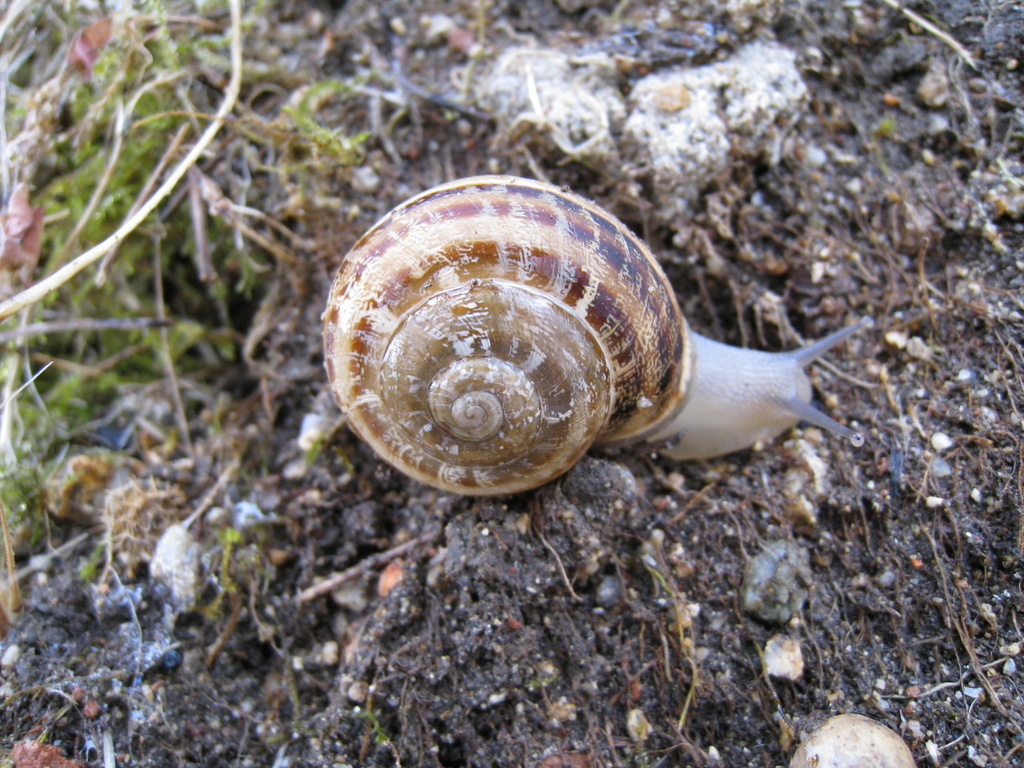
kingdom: Animalia
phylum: Mollusca
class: Gastropoda
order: Stylommatophora
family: Helicidae
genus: Eobania
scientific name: Eobania vermiculata
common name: Chocolateband snail
